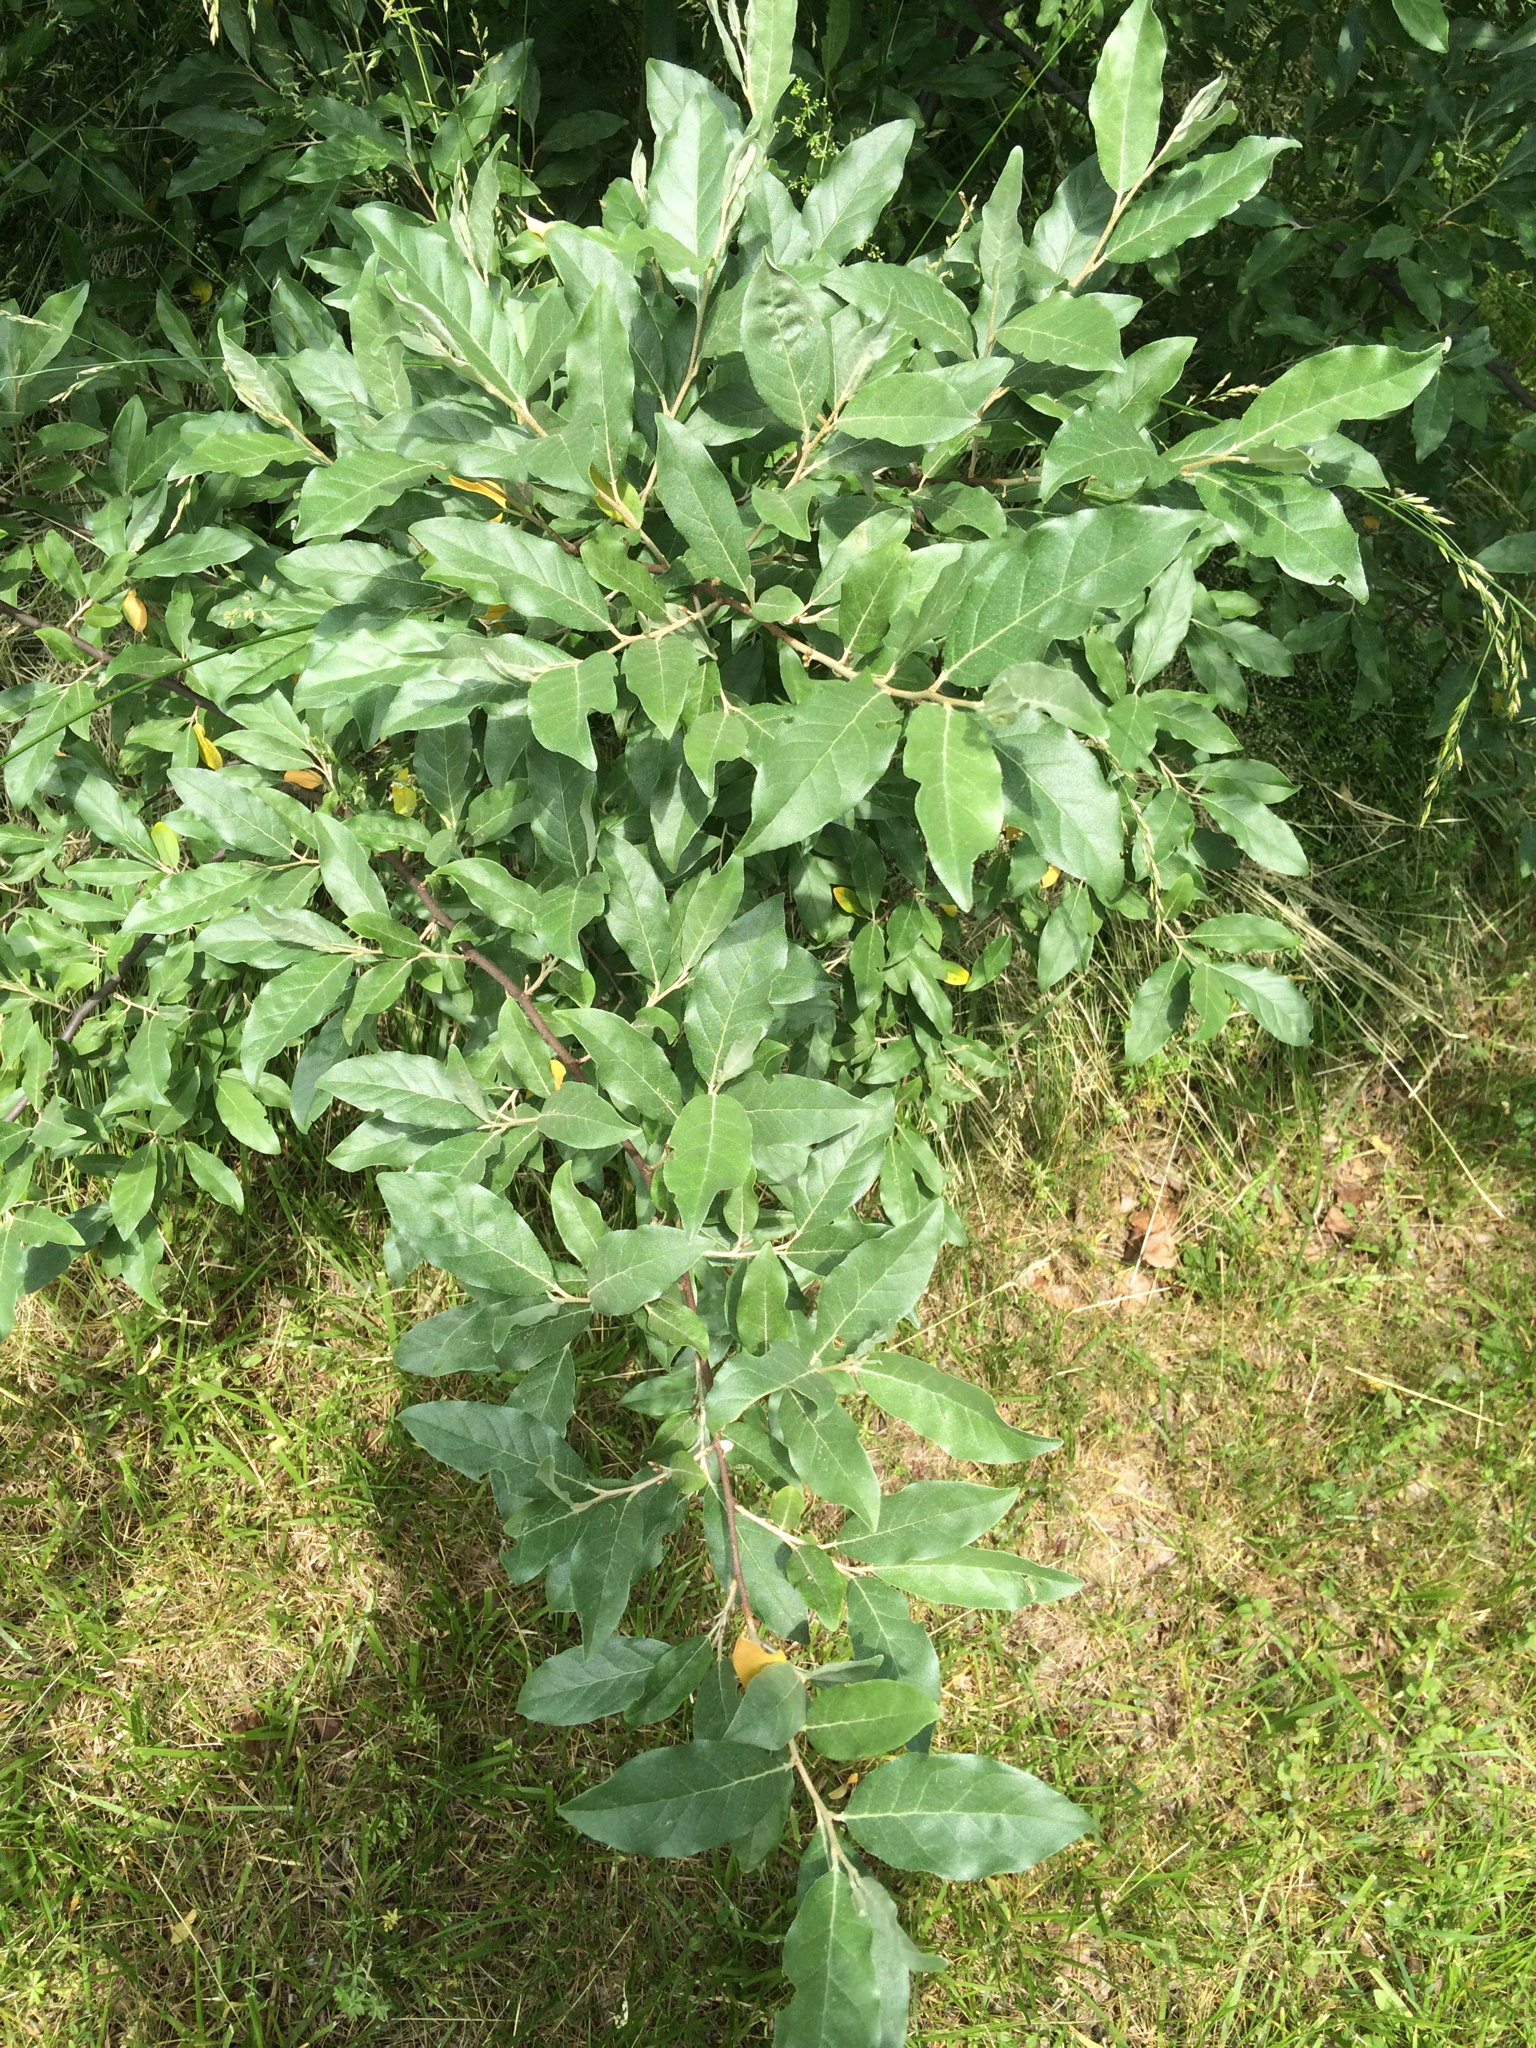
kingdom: Plantae
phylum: Tracheophyta
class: Magnoliopsida
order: Rosales
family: Elaeagnaceae
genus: Elaeagnus
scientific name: Elaeagnus umbellata
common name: Autumn olive
